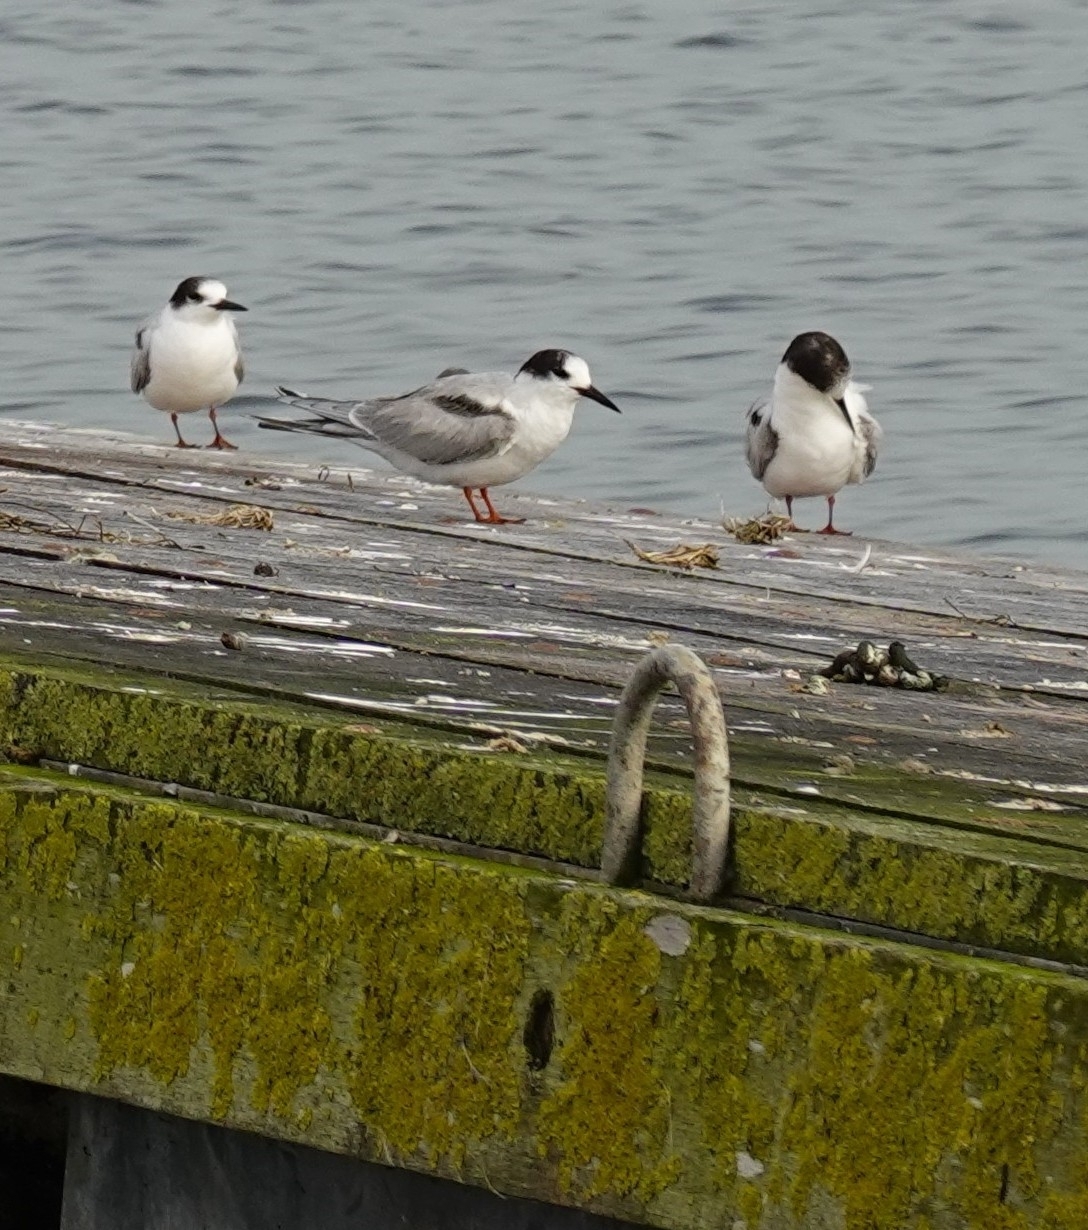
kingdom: Animalia
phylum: Chordata
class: Aves
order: Charadriiformes
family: Laridae
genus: Sterna
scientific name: Sterna hirundo
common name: Common tern
